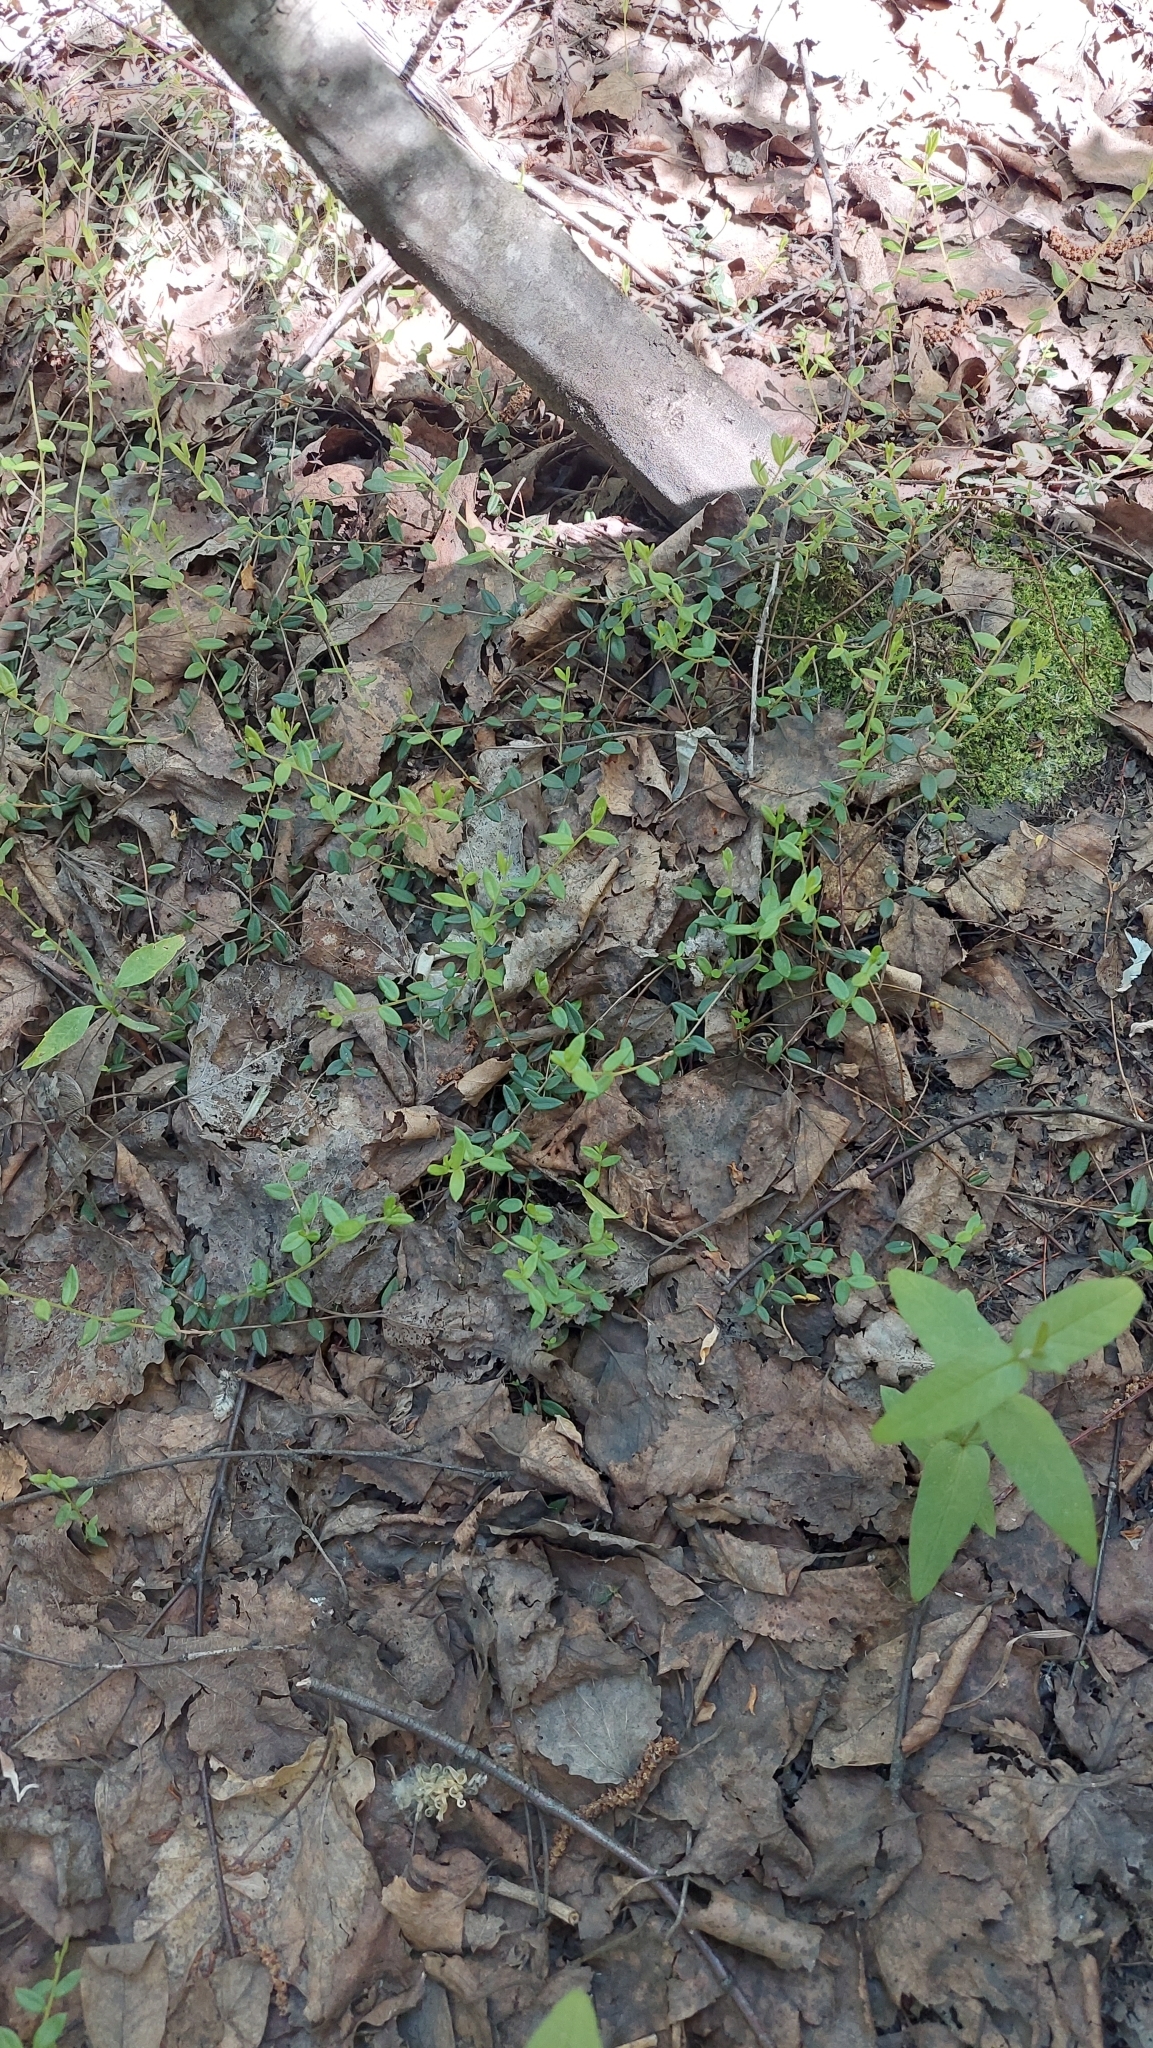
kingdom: Plantae
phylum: Tracheophyta
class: Magnoliopsida
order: Ericales
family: Ericaceae
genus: Vaccinium
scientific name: Vaccinium oxycoccos
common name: Cranberry
